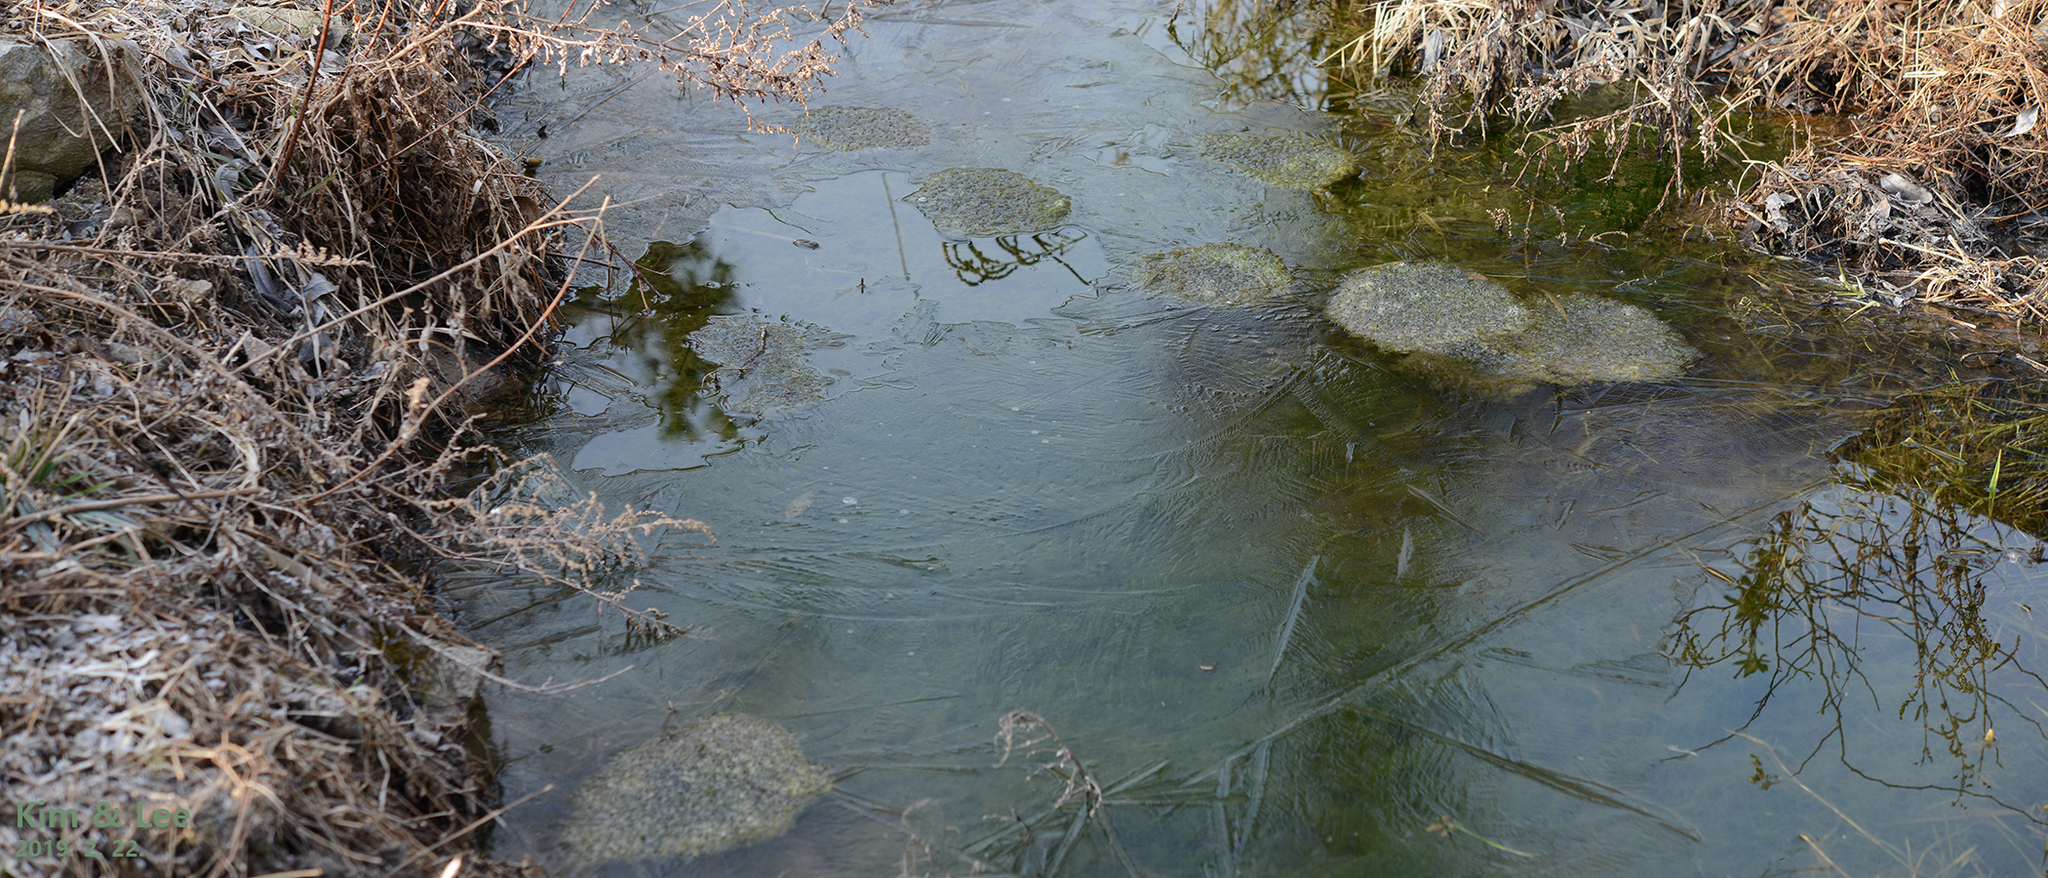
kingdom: Animalia
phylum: Chordata
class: Amphibia
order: Anura
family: Ranidae
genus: Rana
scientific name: Rana uenoi
